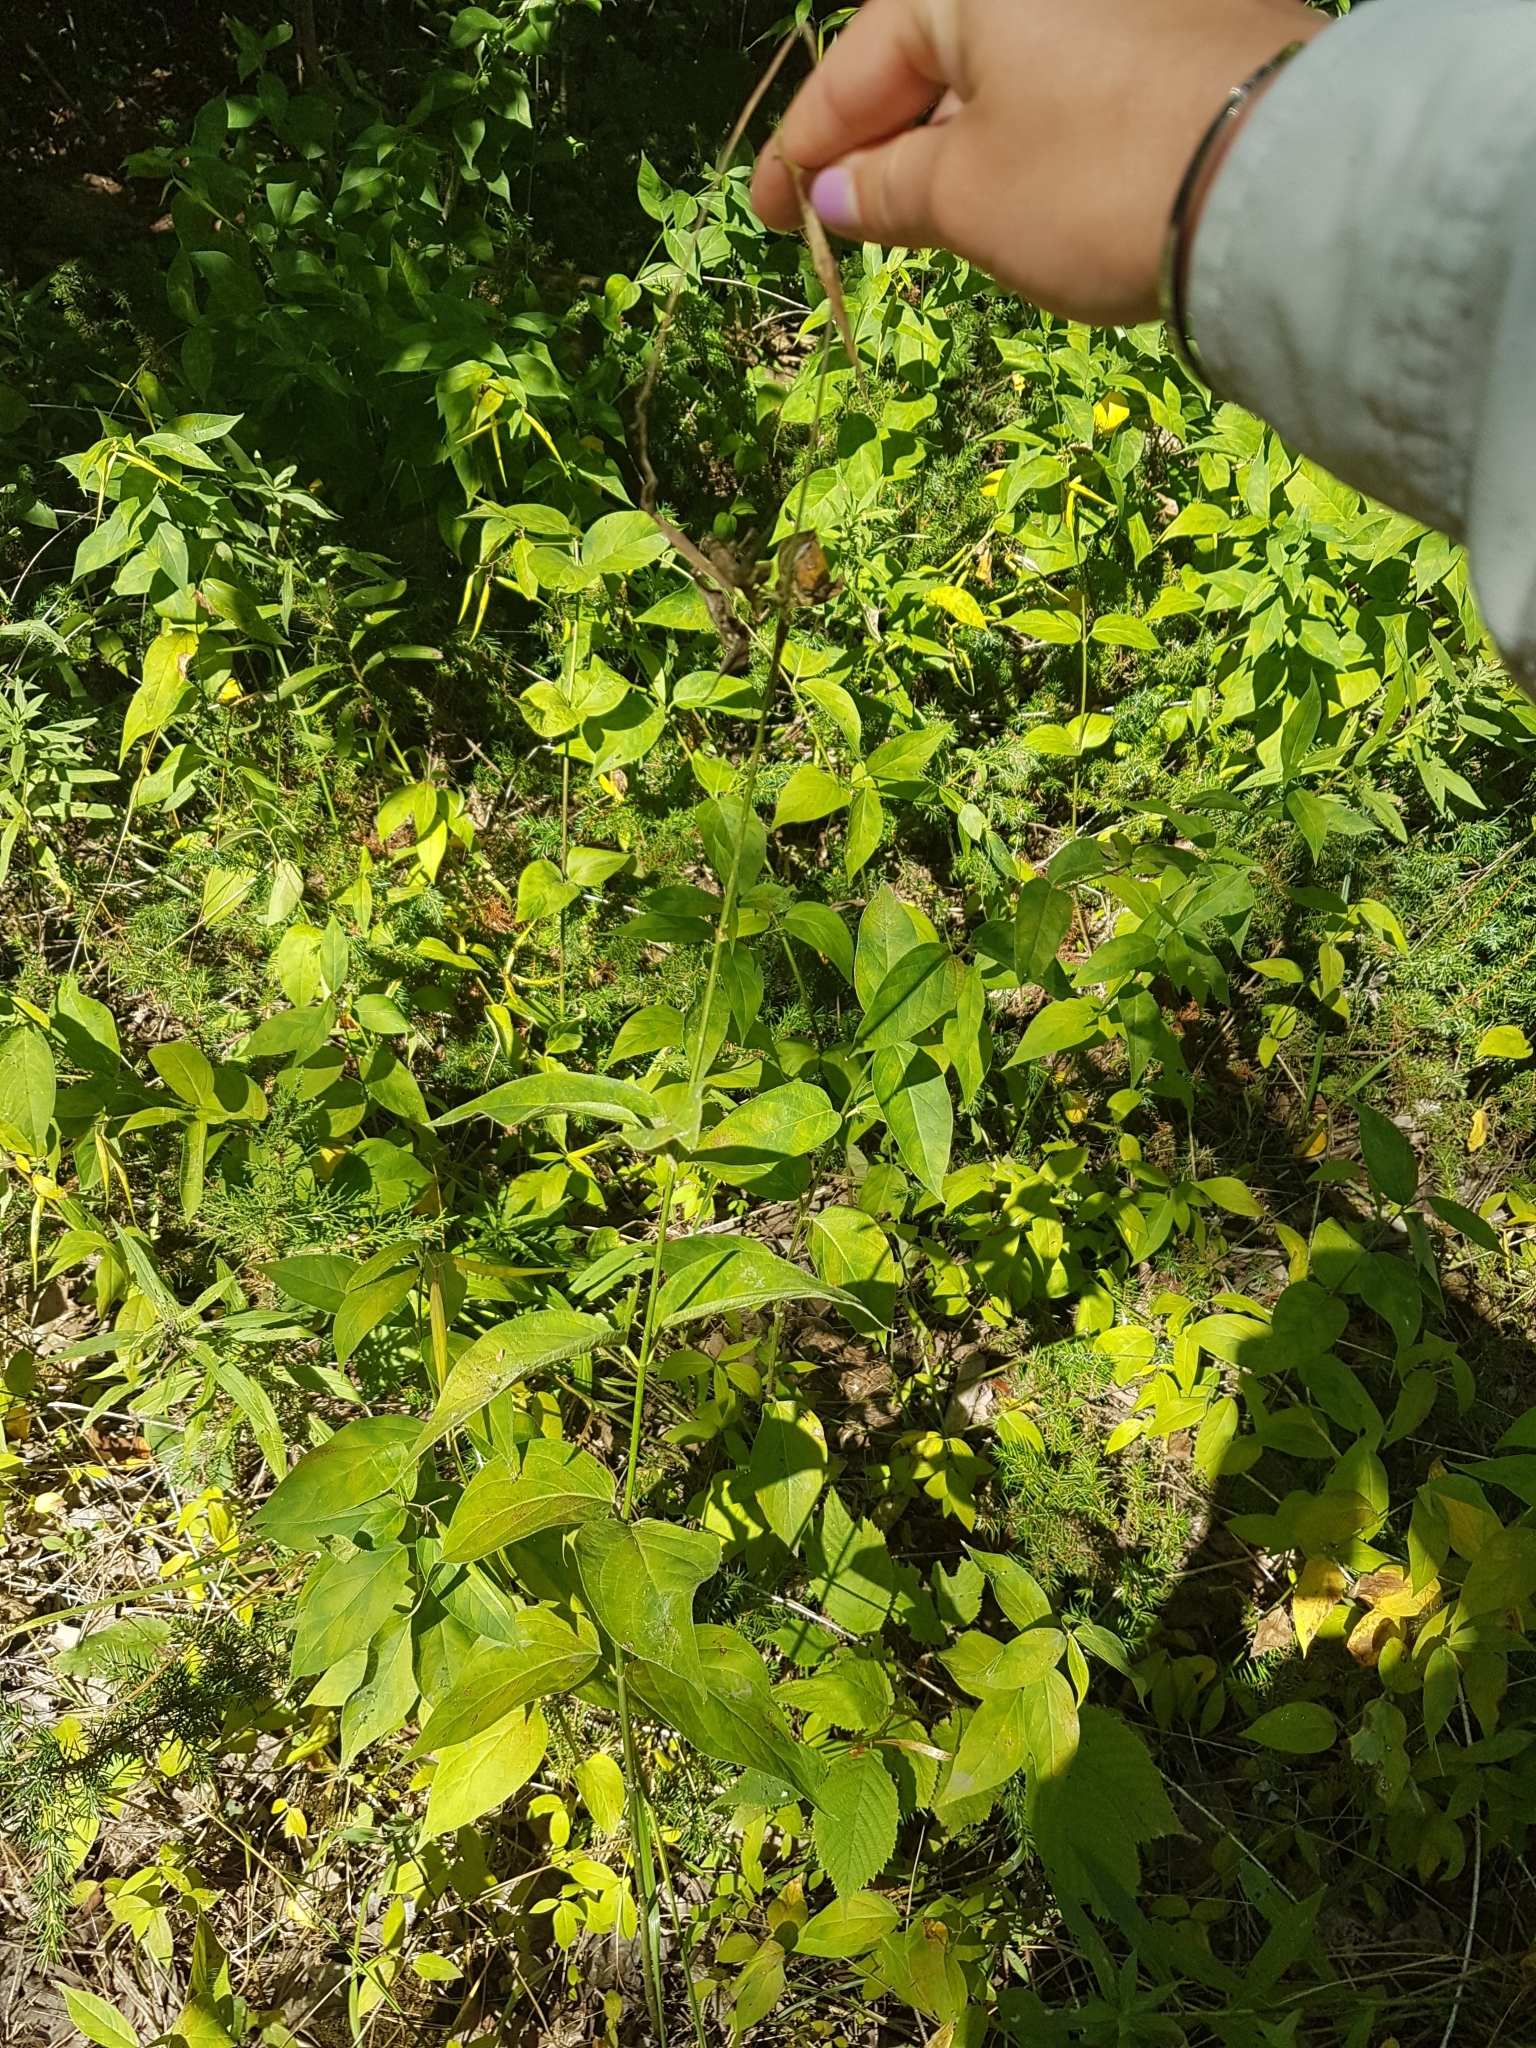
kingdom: Plantae
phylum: Tracheophyta
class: Magnoliopsida
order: Gentianales
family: Apocynaceae
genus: Vincetoxicum
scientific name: Vincetoxicum rossicum
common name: Dog-strangling vine
